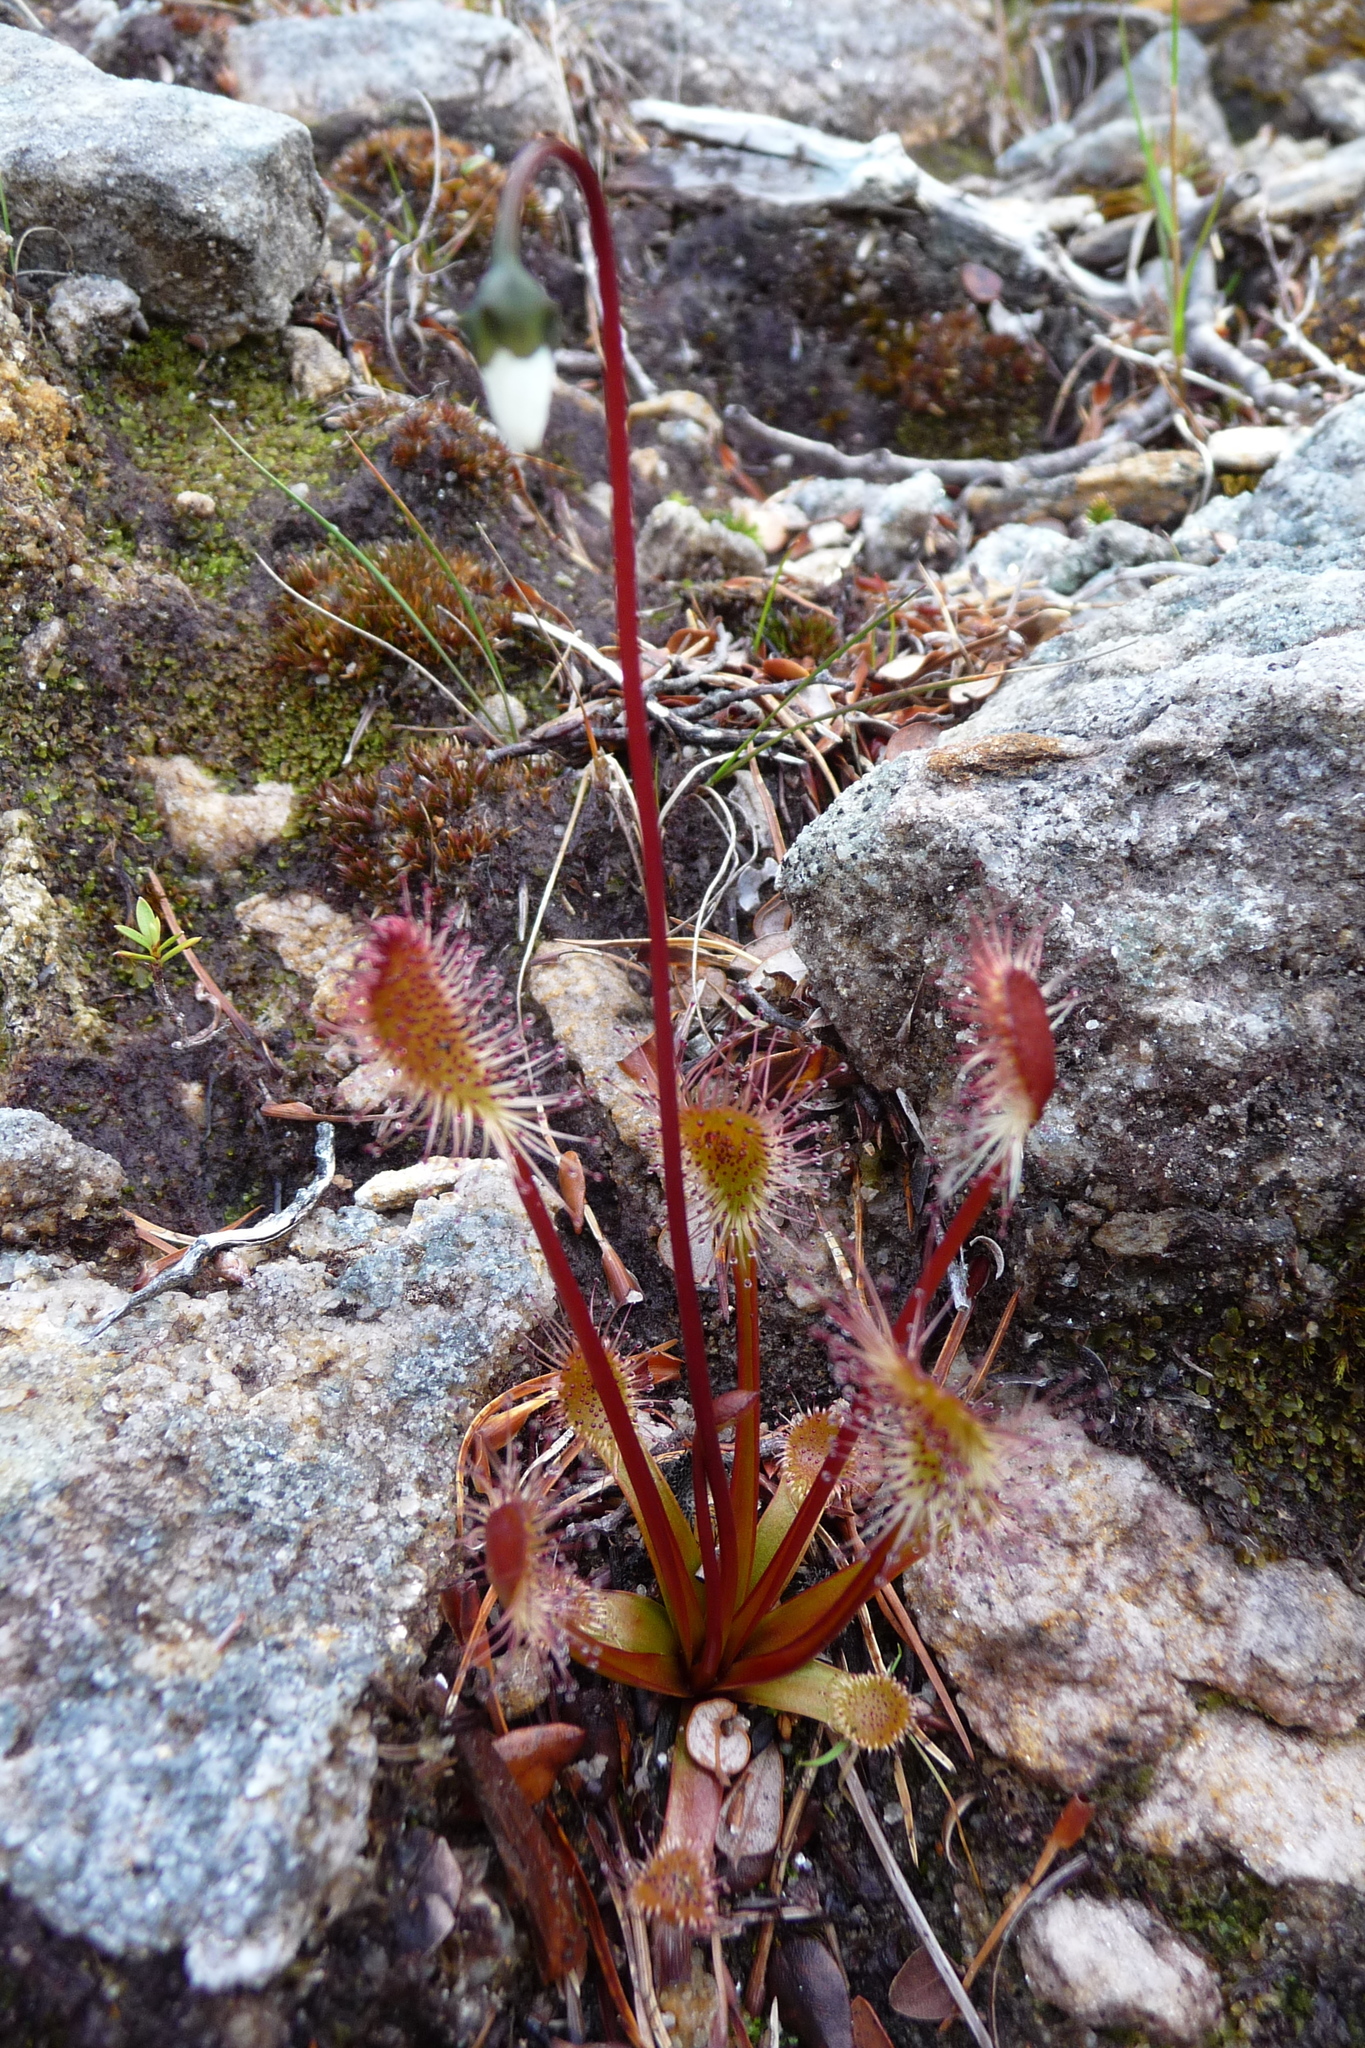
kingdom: Plantae
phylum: Tracheophyta
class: Magnoliopsida
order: Caryophyllales
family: Droseraceae
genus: Drosera
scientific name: Drosera stenopetala
